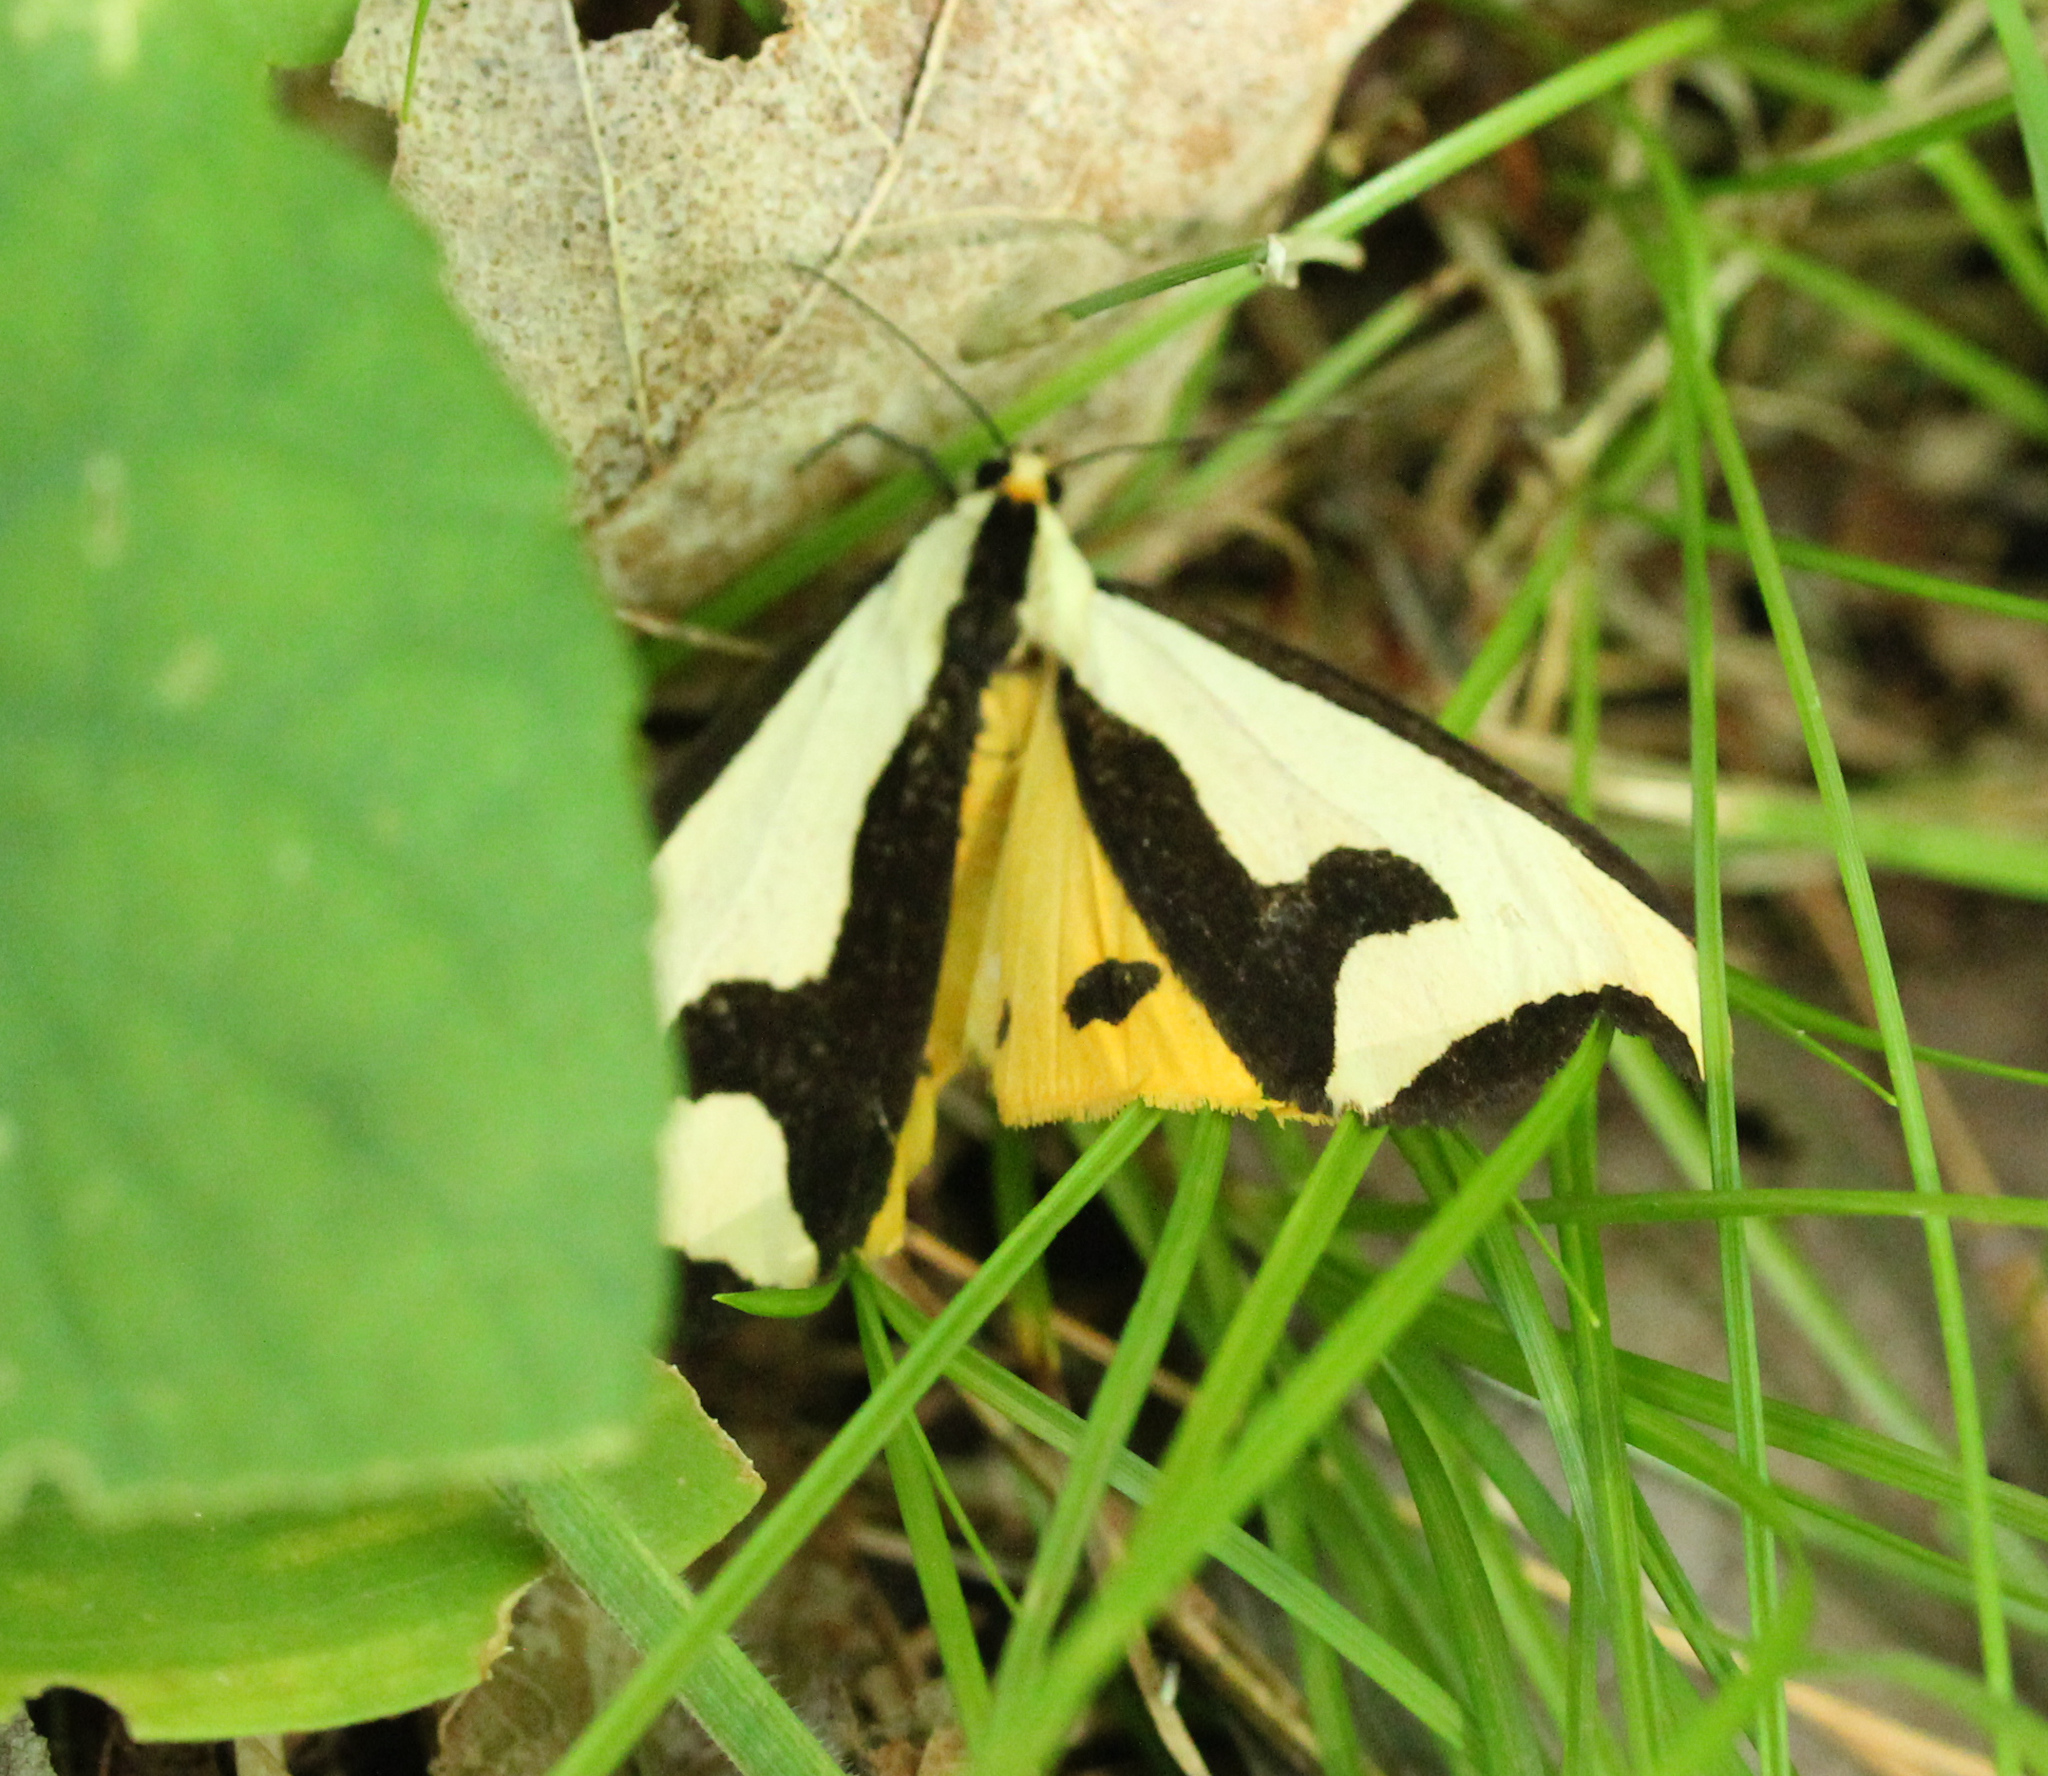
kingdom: Animalia
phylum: Arthropoda
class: Insecta
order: Lepidoptera
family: Erebidae
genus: Haploa
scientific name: Haploa clymene
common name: Clymene moth
